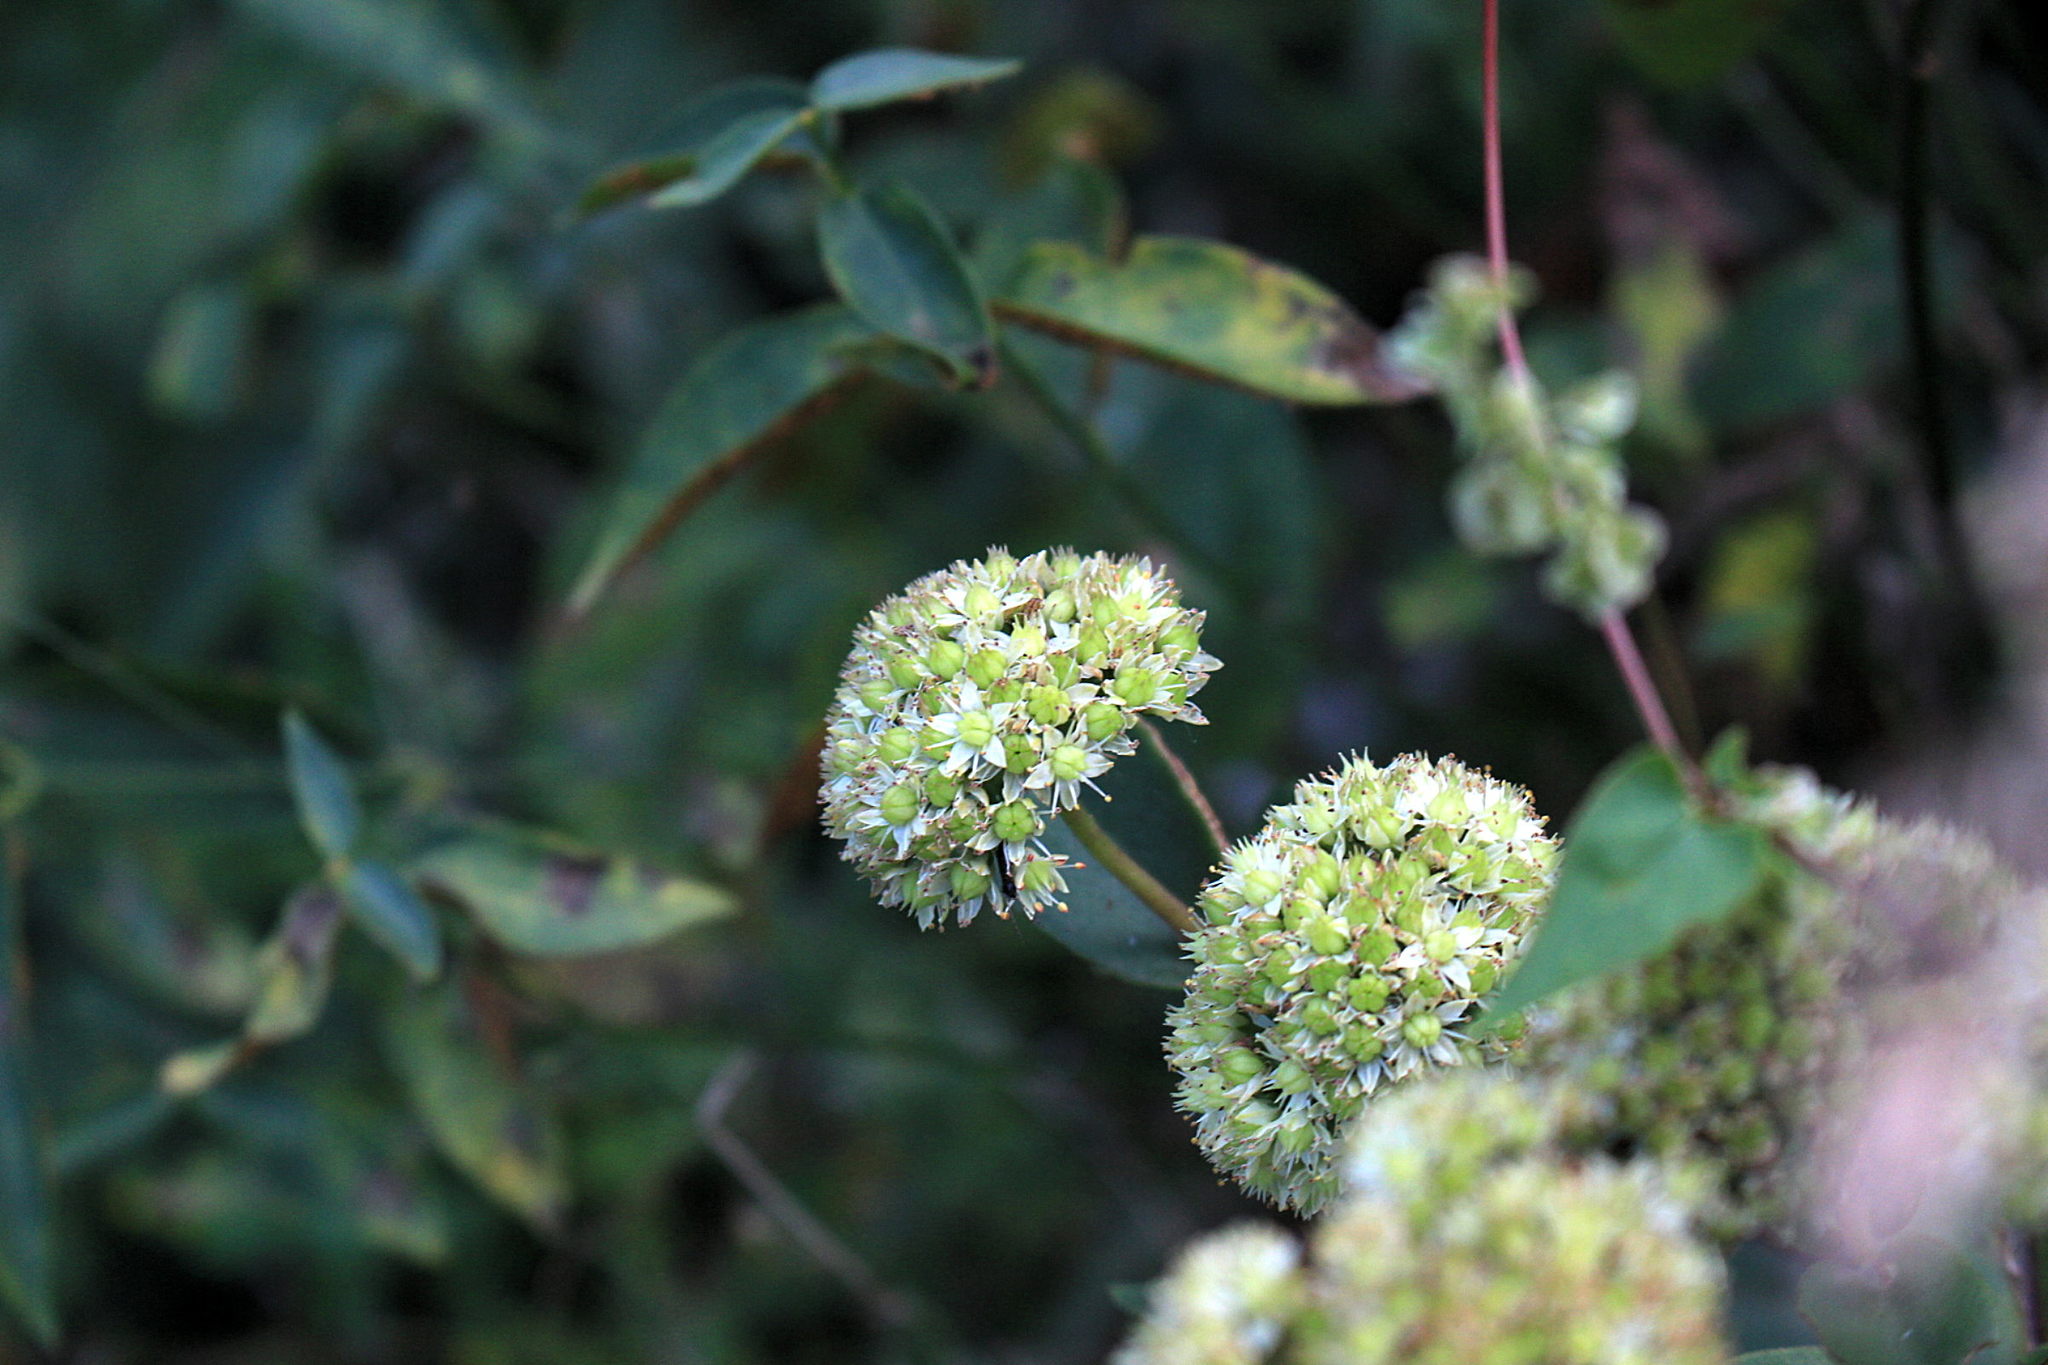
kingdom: Plantae
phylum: Tracheophyta
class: Magnoliopsida
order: Saxifragales
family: Crassulaceae
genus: Hylotelephium
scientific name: Hylotelephium maximum
